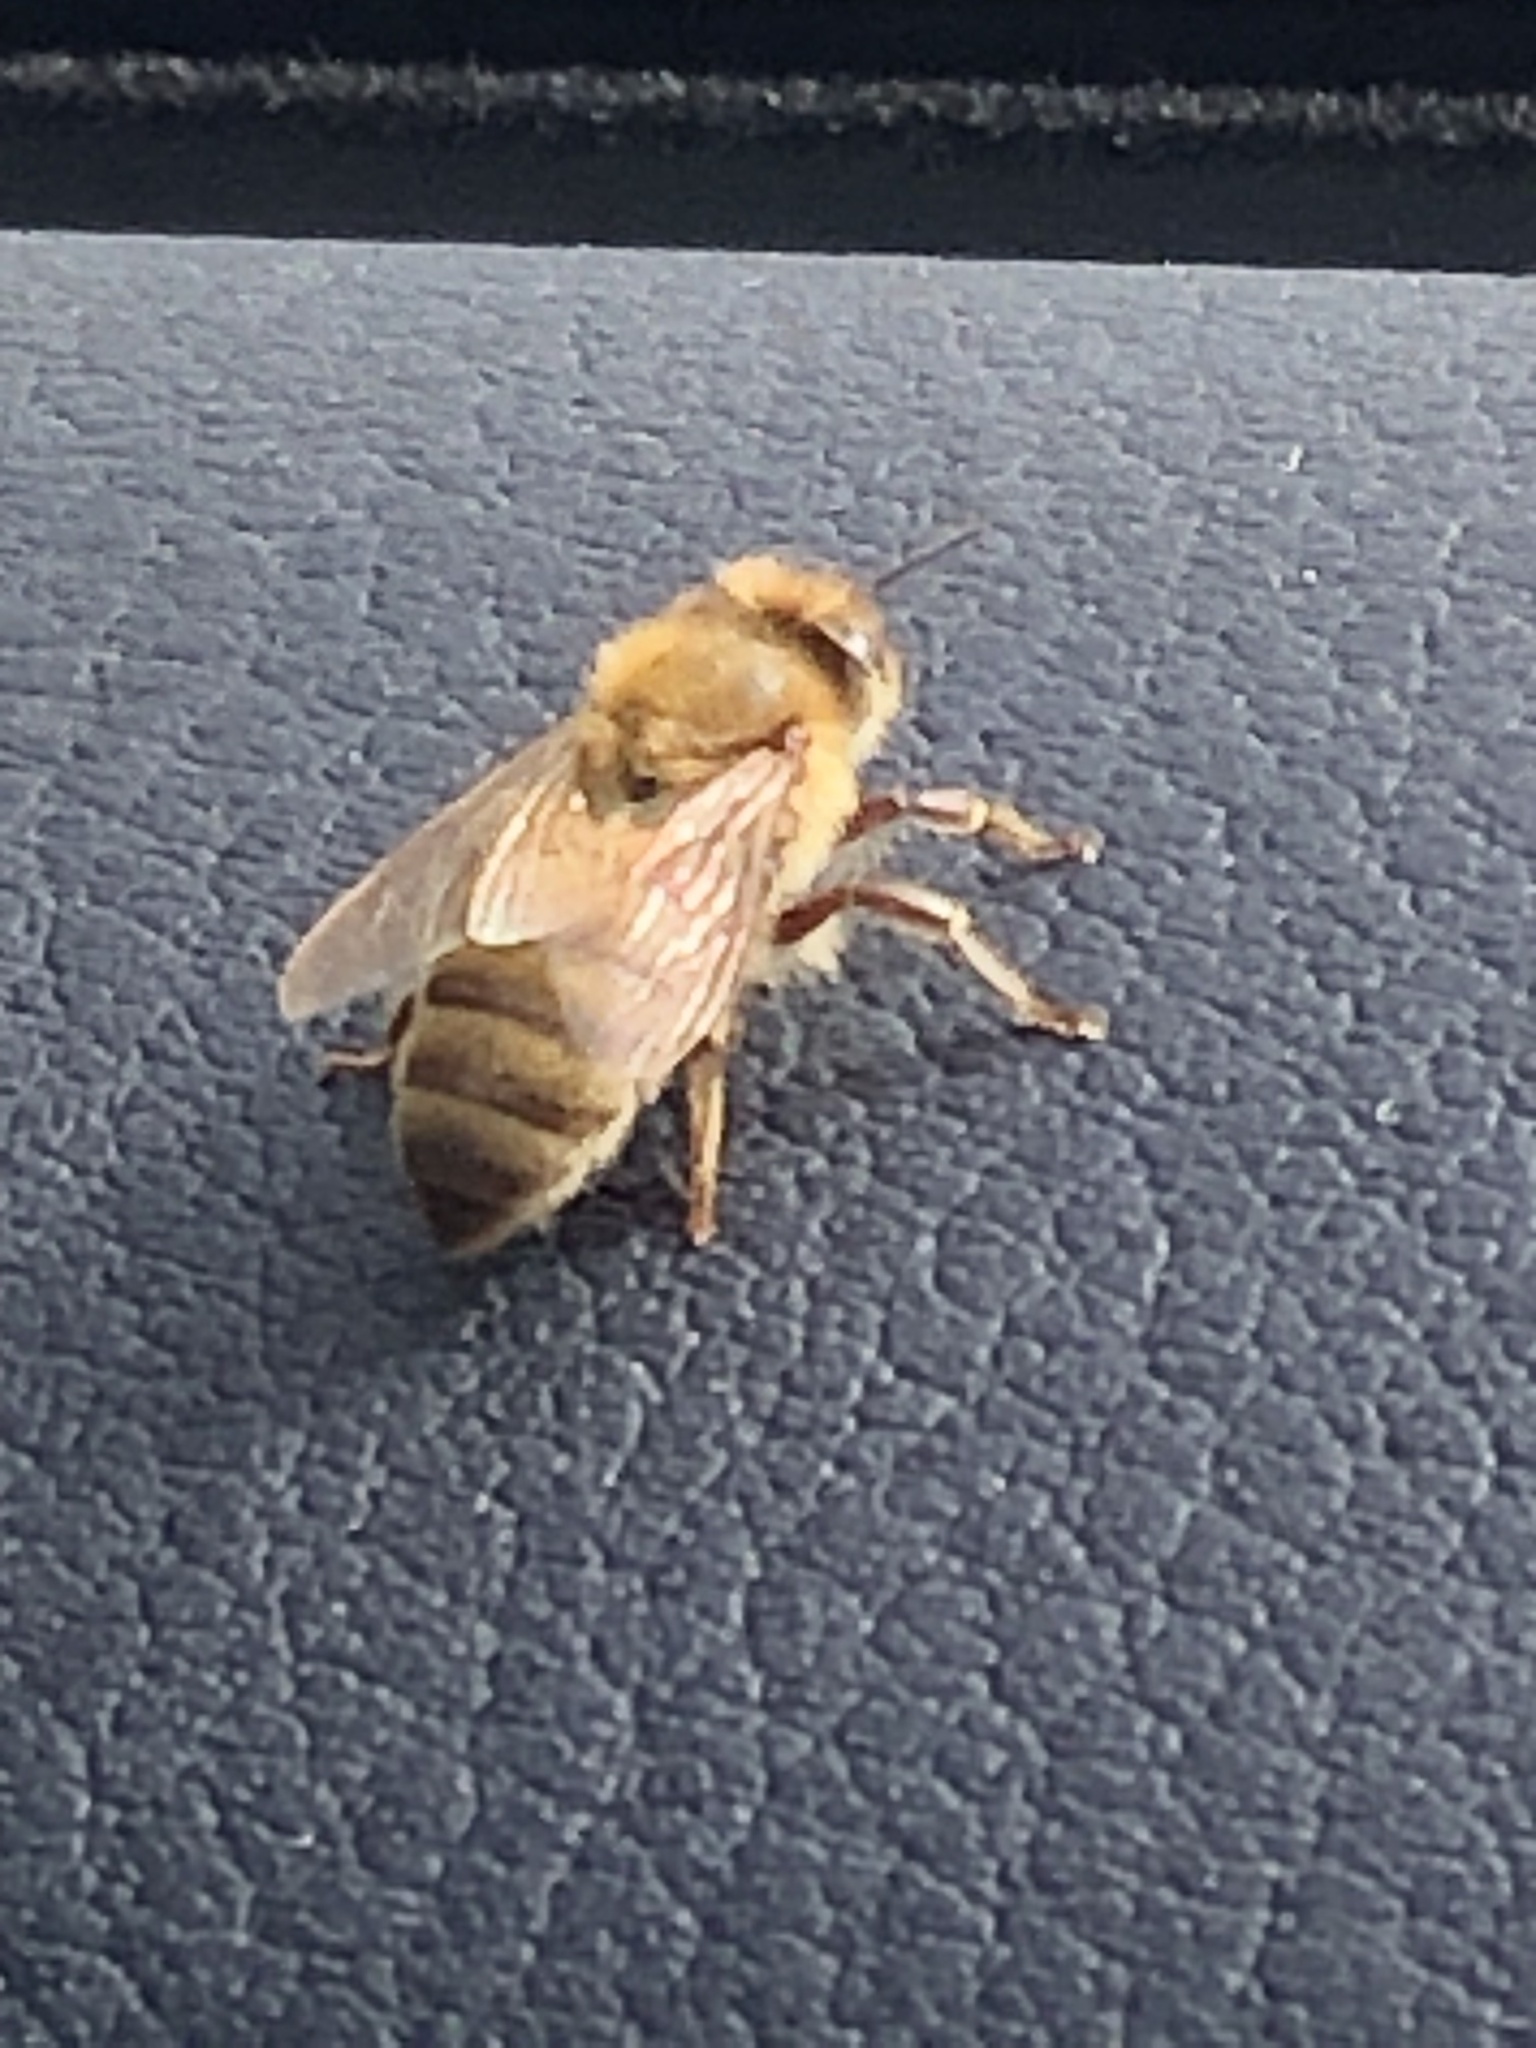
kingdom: Animalia
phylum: Arthropoda
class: Insecta
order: Hymenoptera
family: Apidae
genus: Apis
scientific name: Apis mellifera
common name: Honey bee
